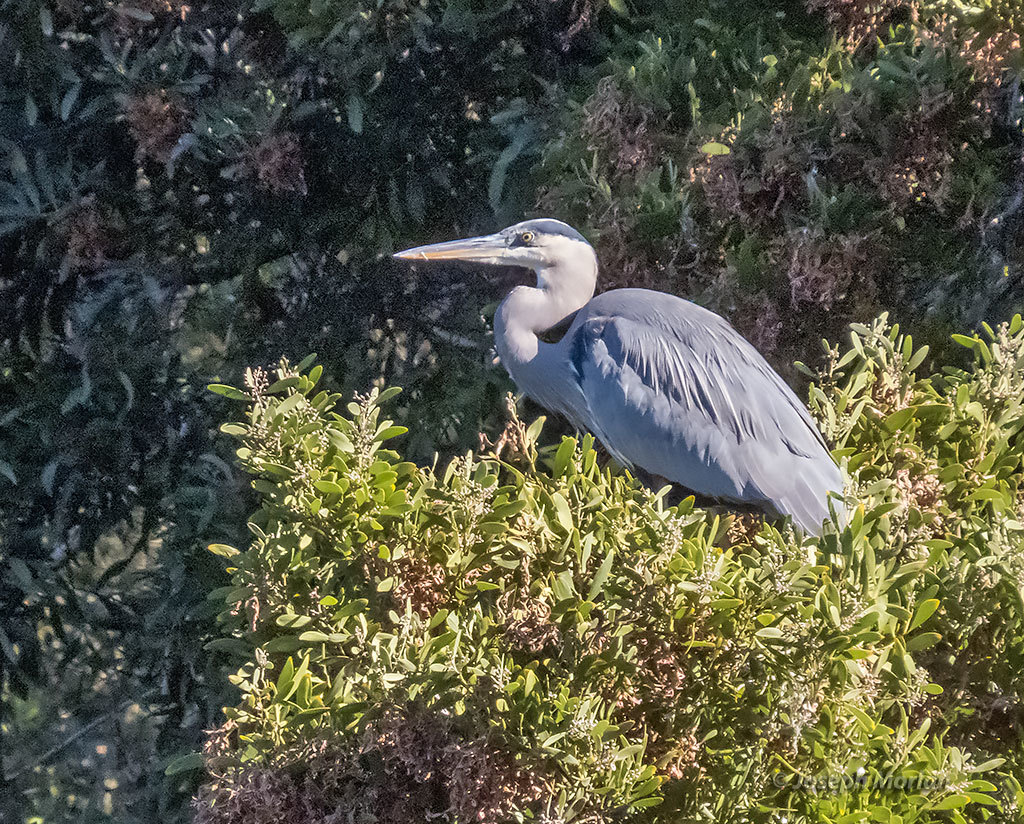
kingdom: Animalia
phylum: Chordata
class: Aves
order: Pelecaniformes
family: Ardeidae
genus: Ardea
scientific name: Ardea herodias
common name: Great blue heron
